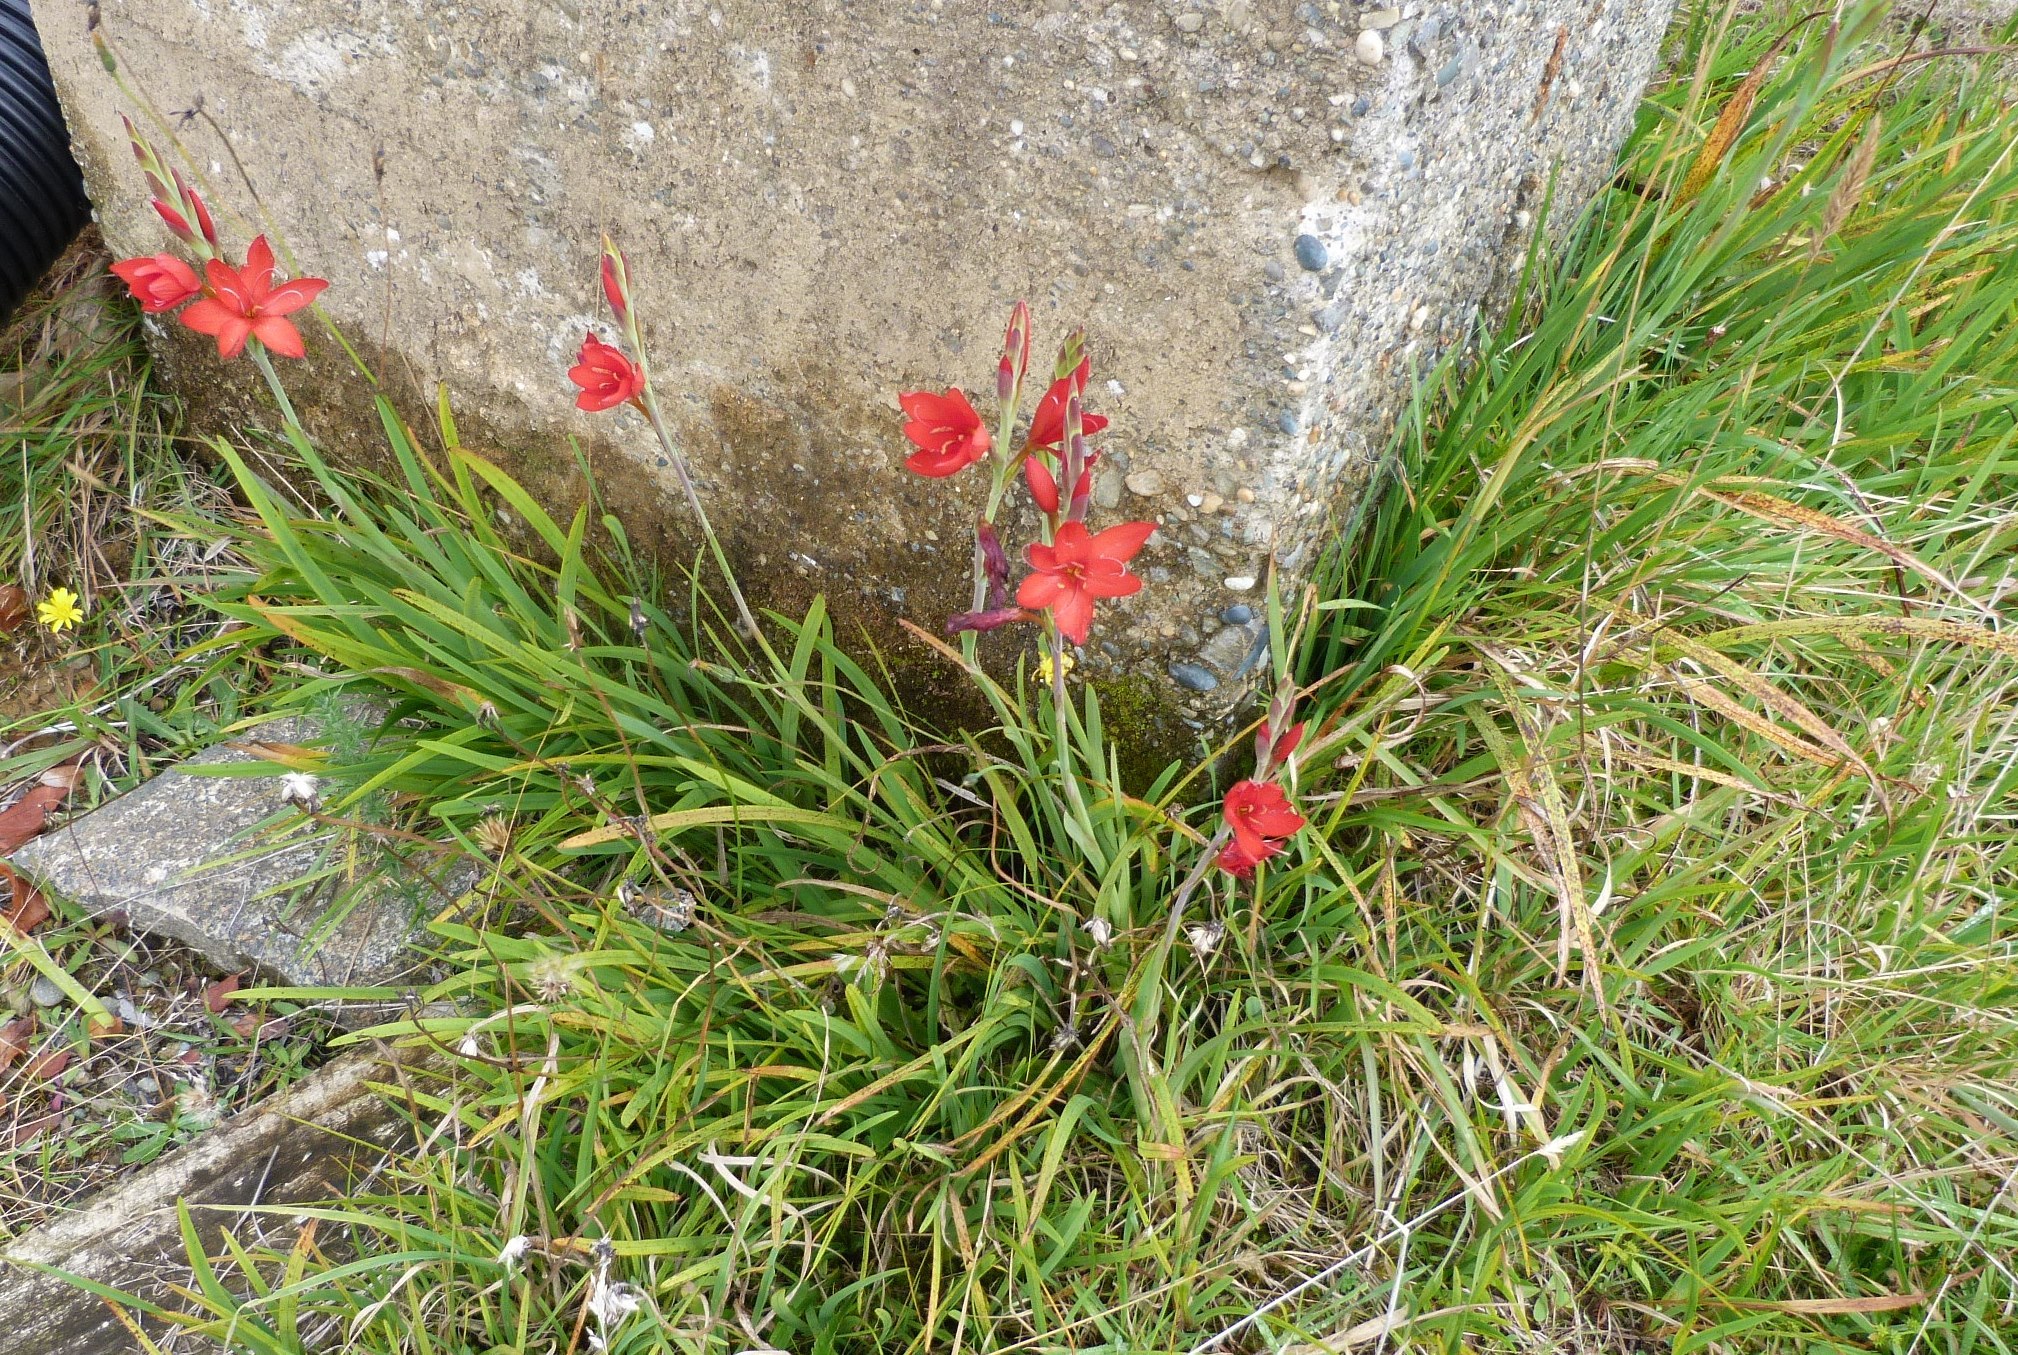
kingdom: Plantae
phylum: Tracheophyta
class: Liliopsida
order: Asparagales
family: Iridaceae
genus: Hesperantha
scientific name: Hesperantha coccinea
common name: River-lily
